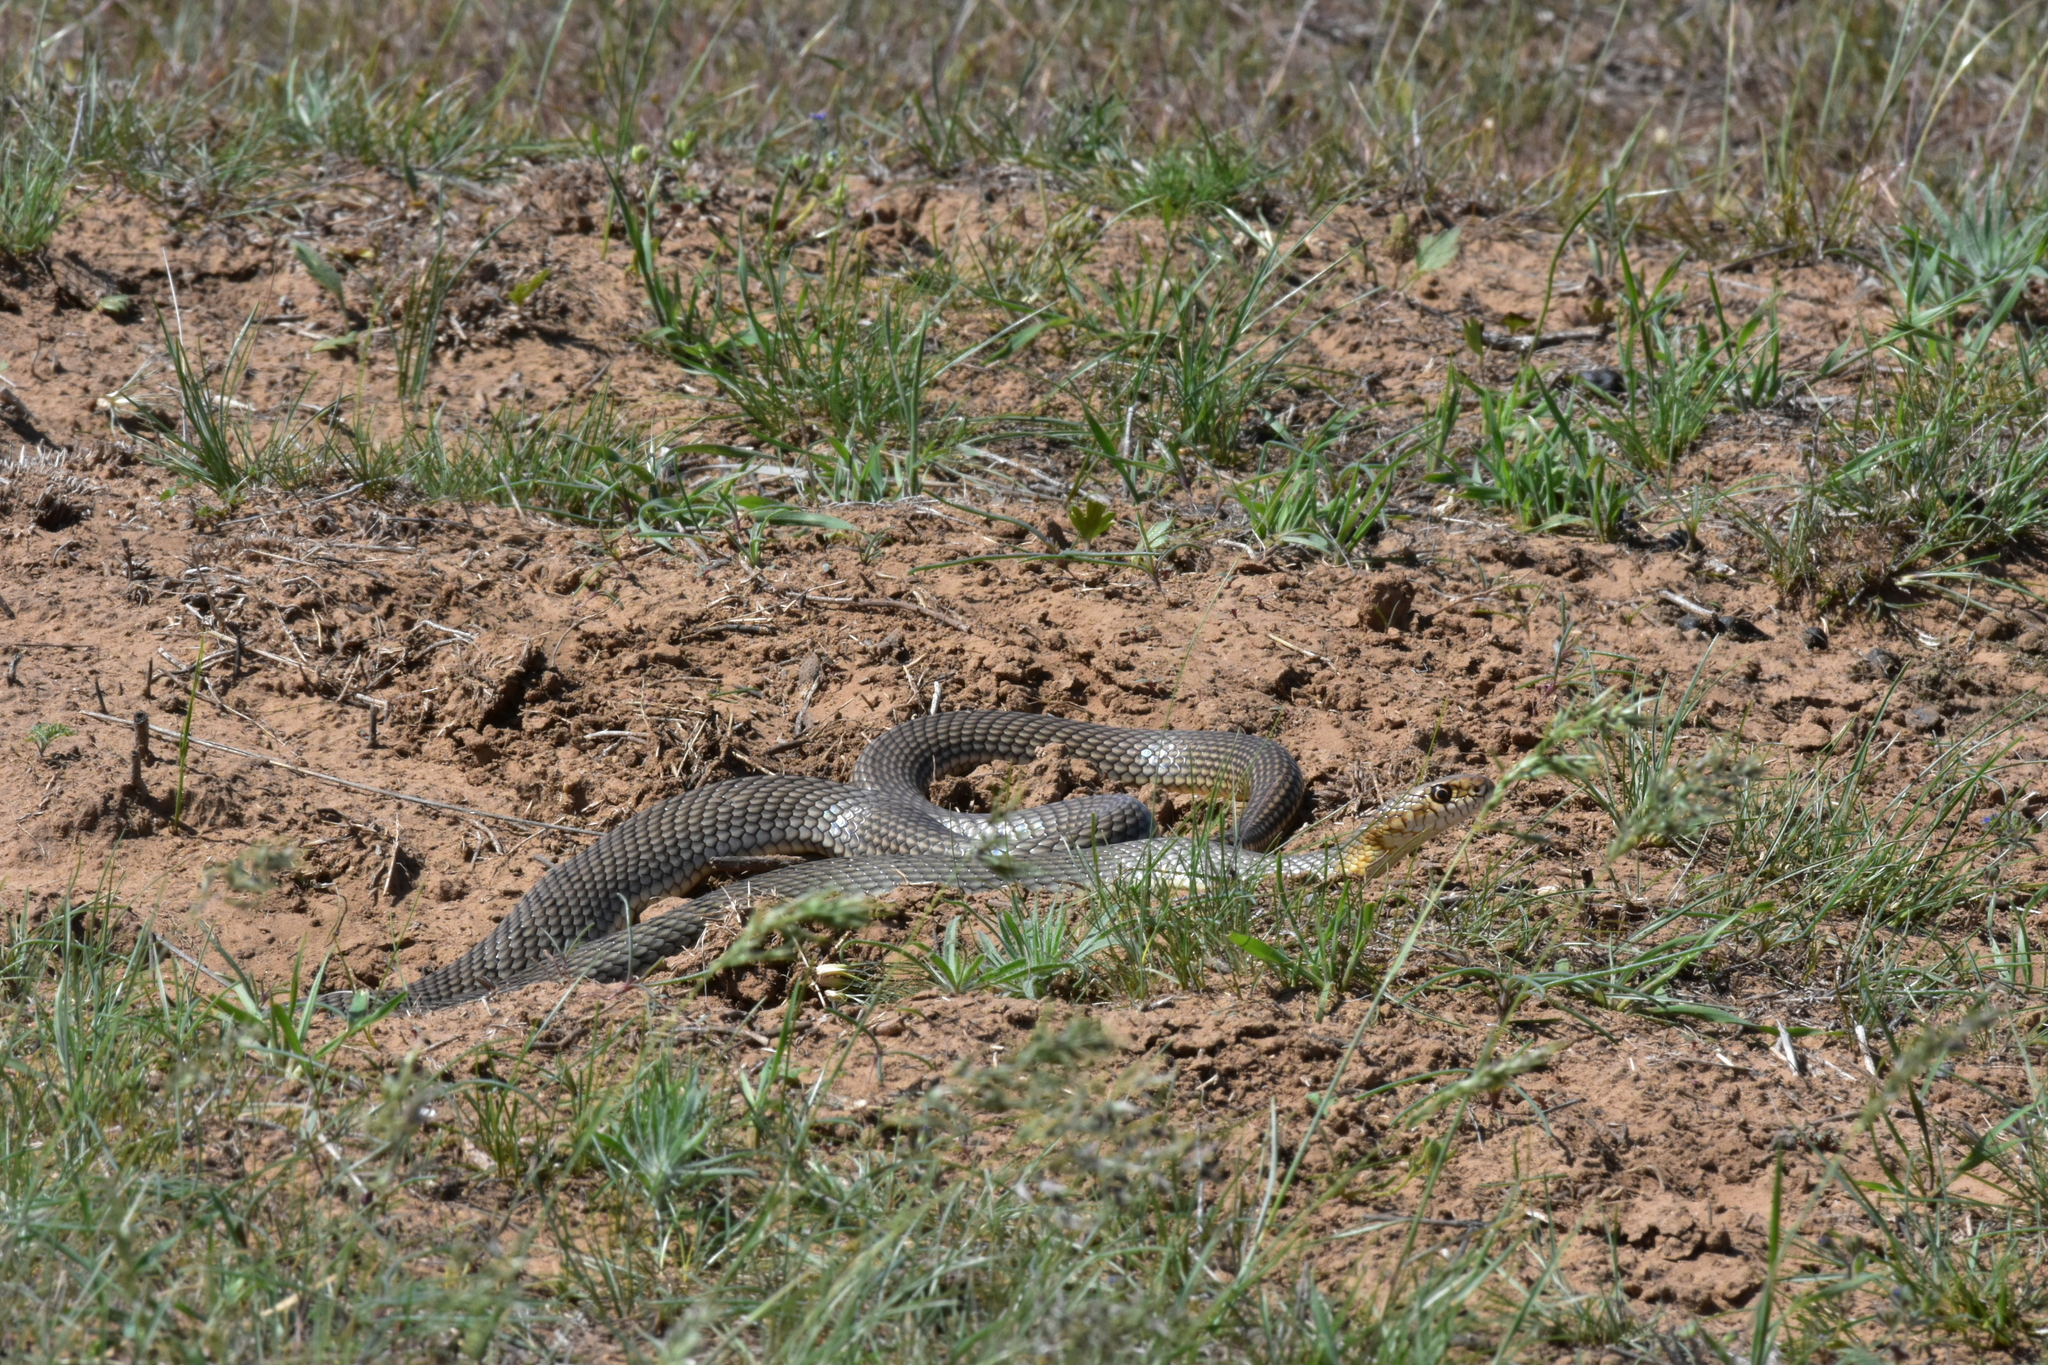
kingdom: Animalia
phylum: Chordata
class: Squamata
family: Colubridae
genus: Dolichophis
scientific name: Dolichophis caspius
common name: Large whip snake
